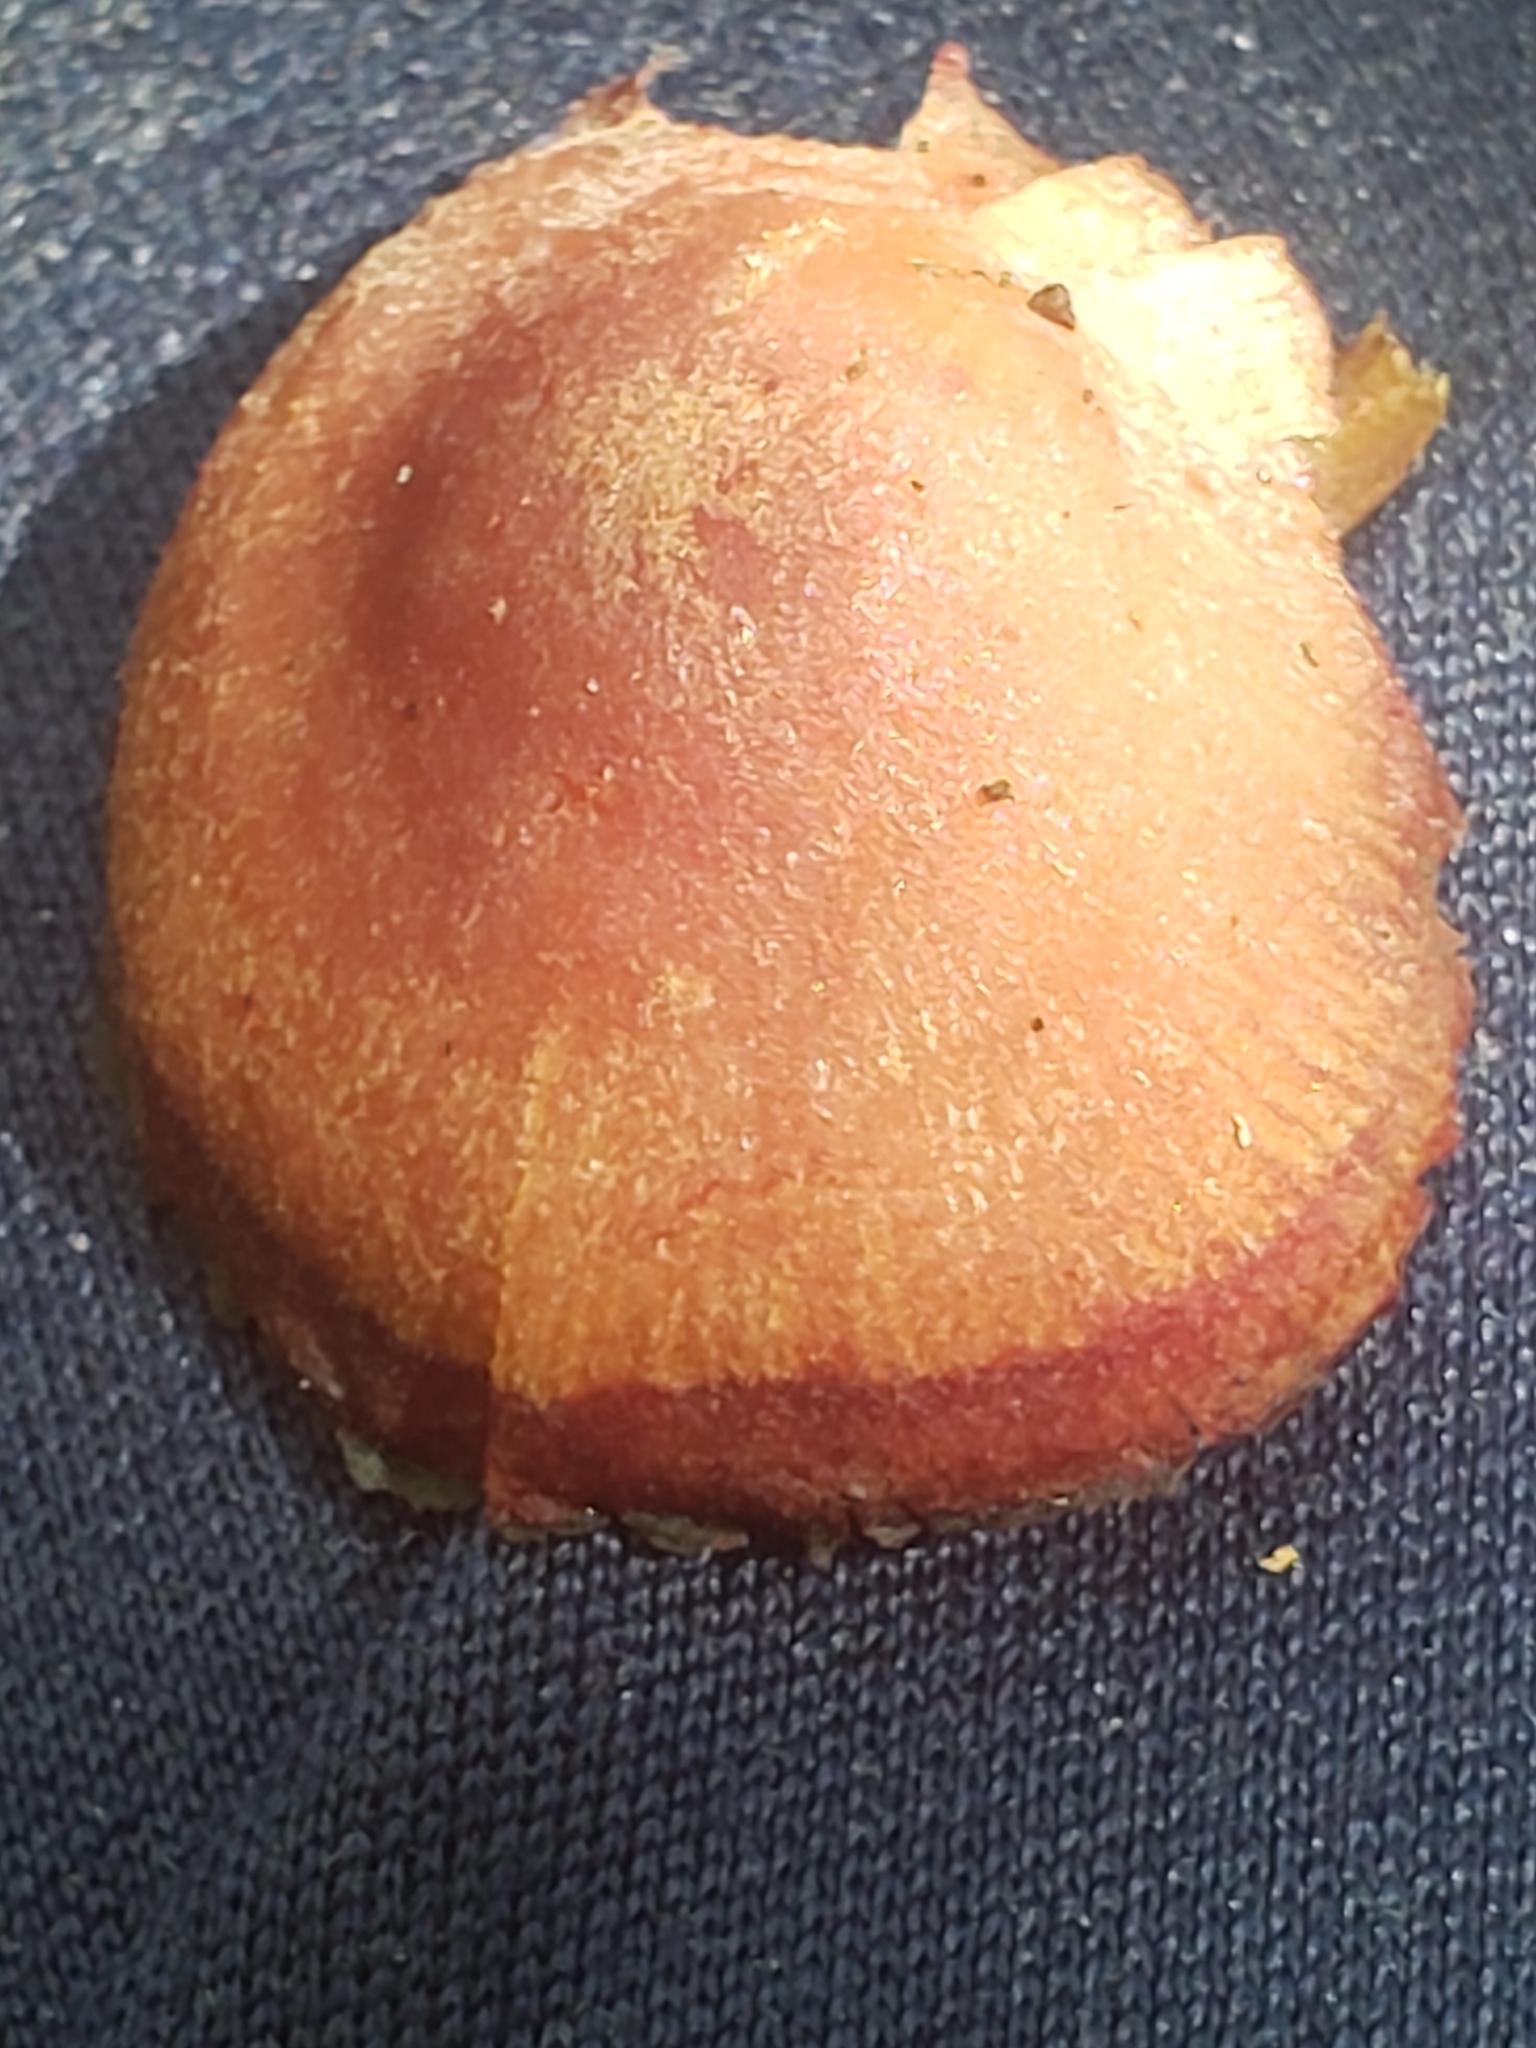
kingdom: Fungi
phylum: Basidiomycota
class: Agaricomycetes
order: Agaricales
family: Callistosporiaceae
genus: Callistosporium
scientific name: Callistosporium purpureomarginatum
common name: Purple-edged lute
